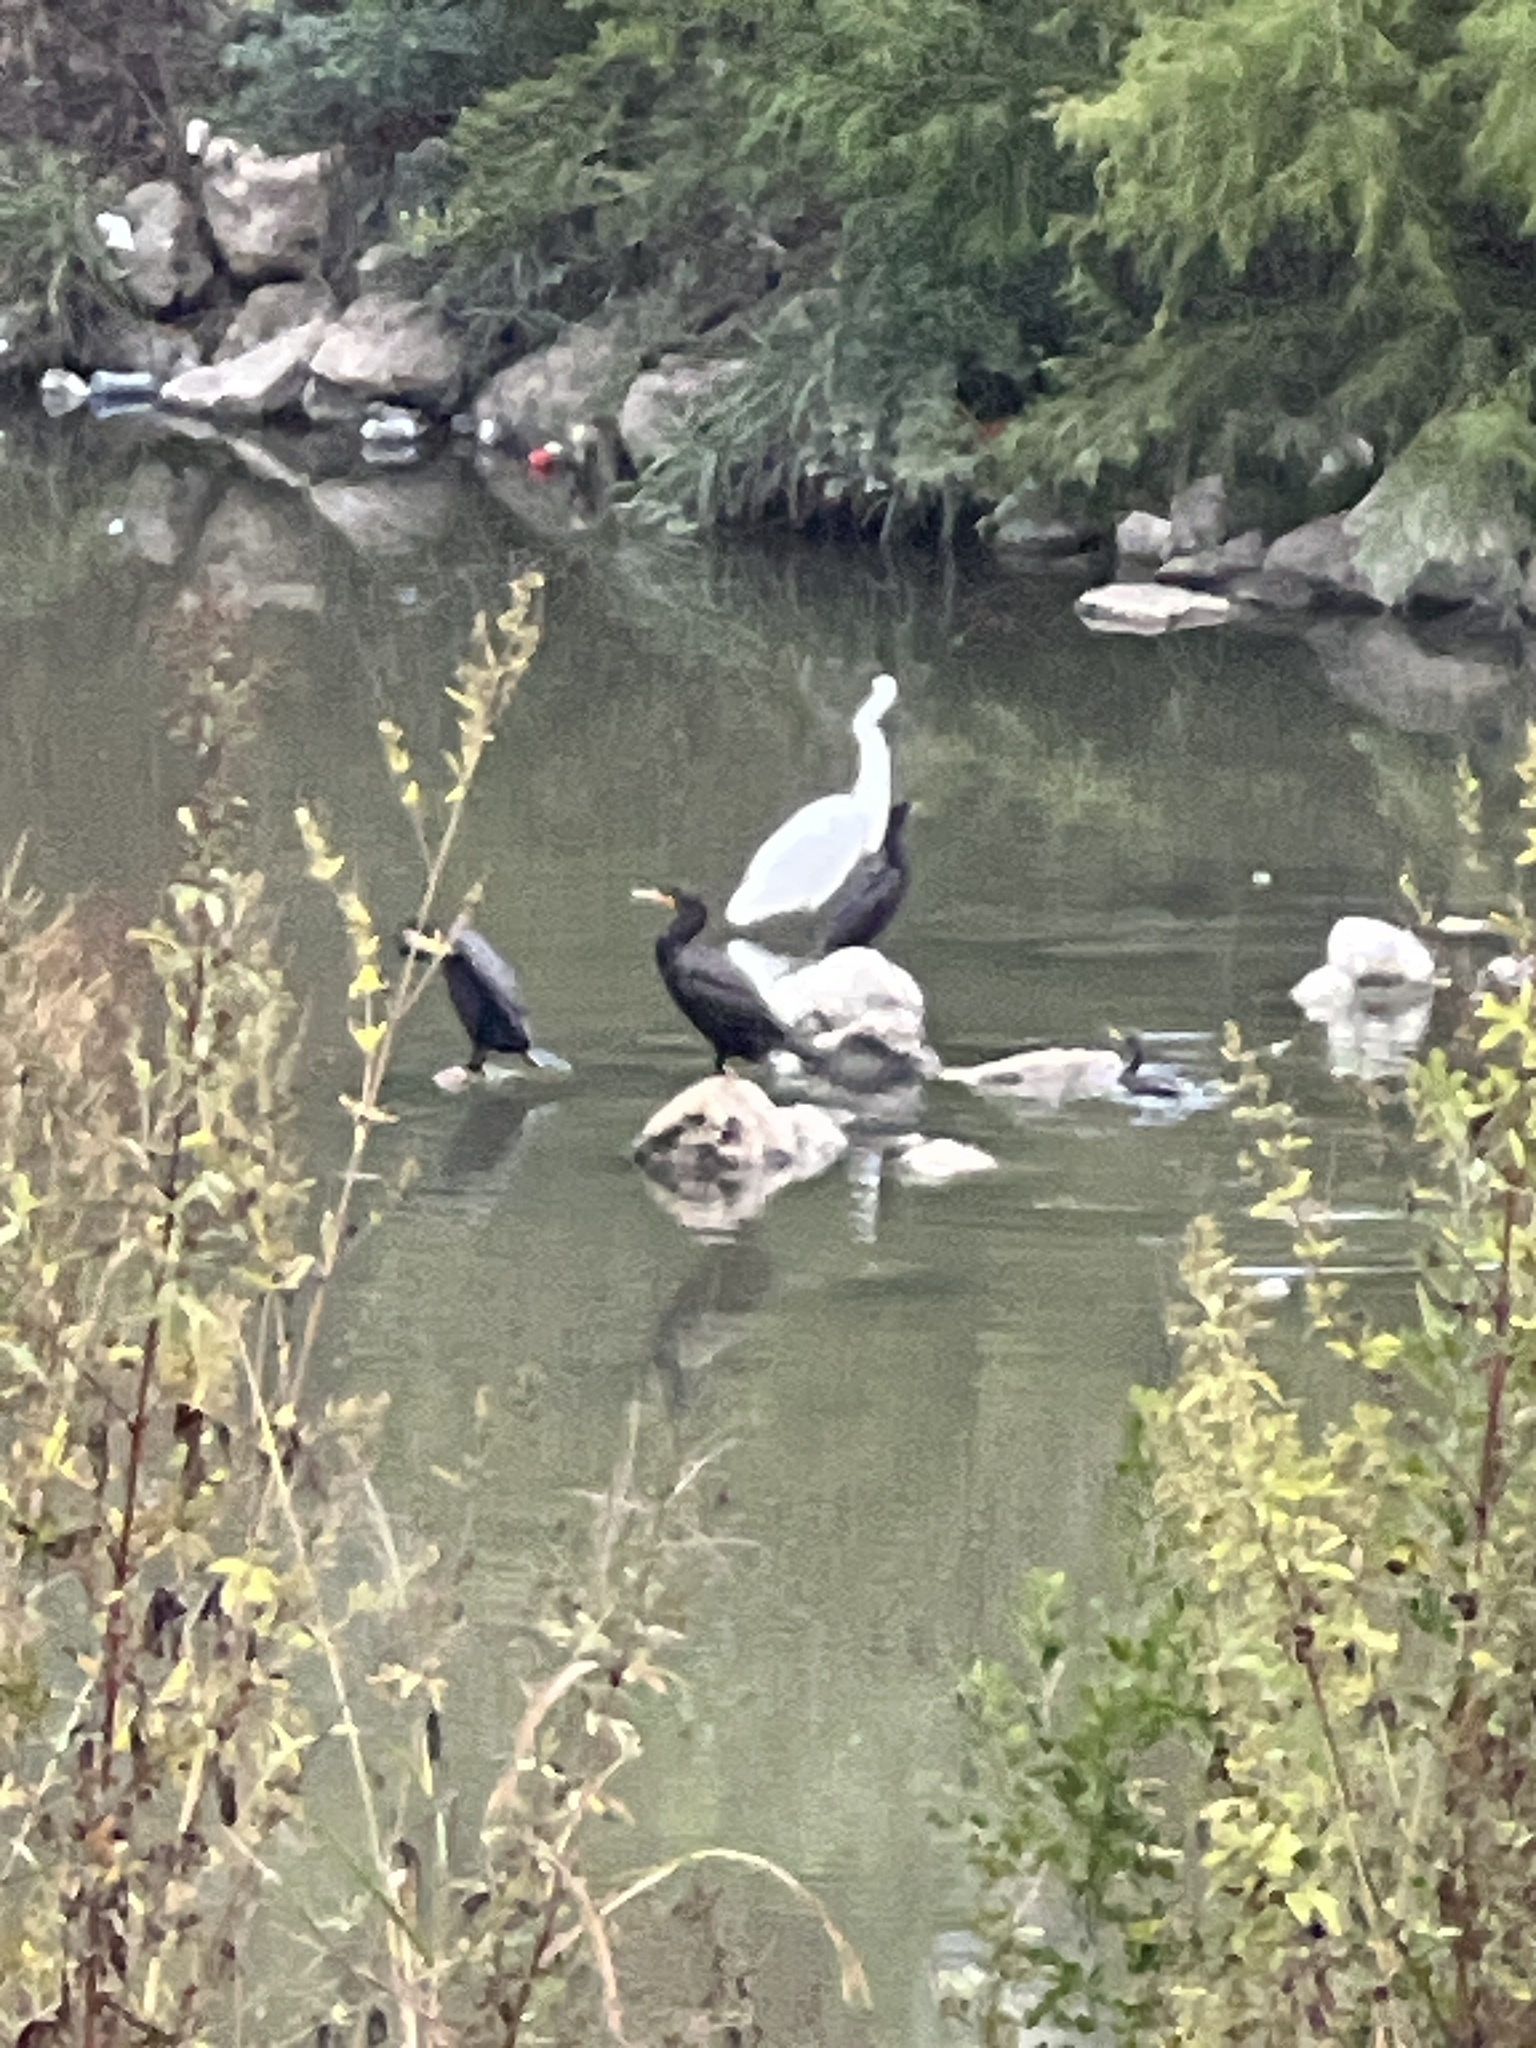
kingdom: Animalia
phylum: Chordata
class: Aves
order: Suliformes
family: Phalacrocoracidae
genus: Phalacrocorax
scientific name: Phalacrocorax auritus
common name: Double-crested cormorant
